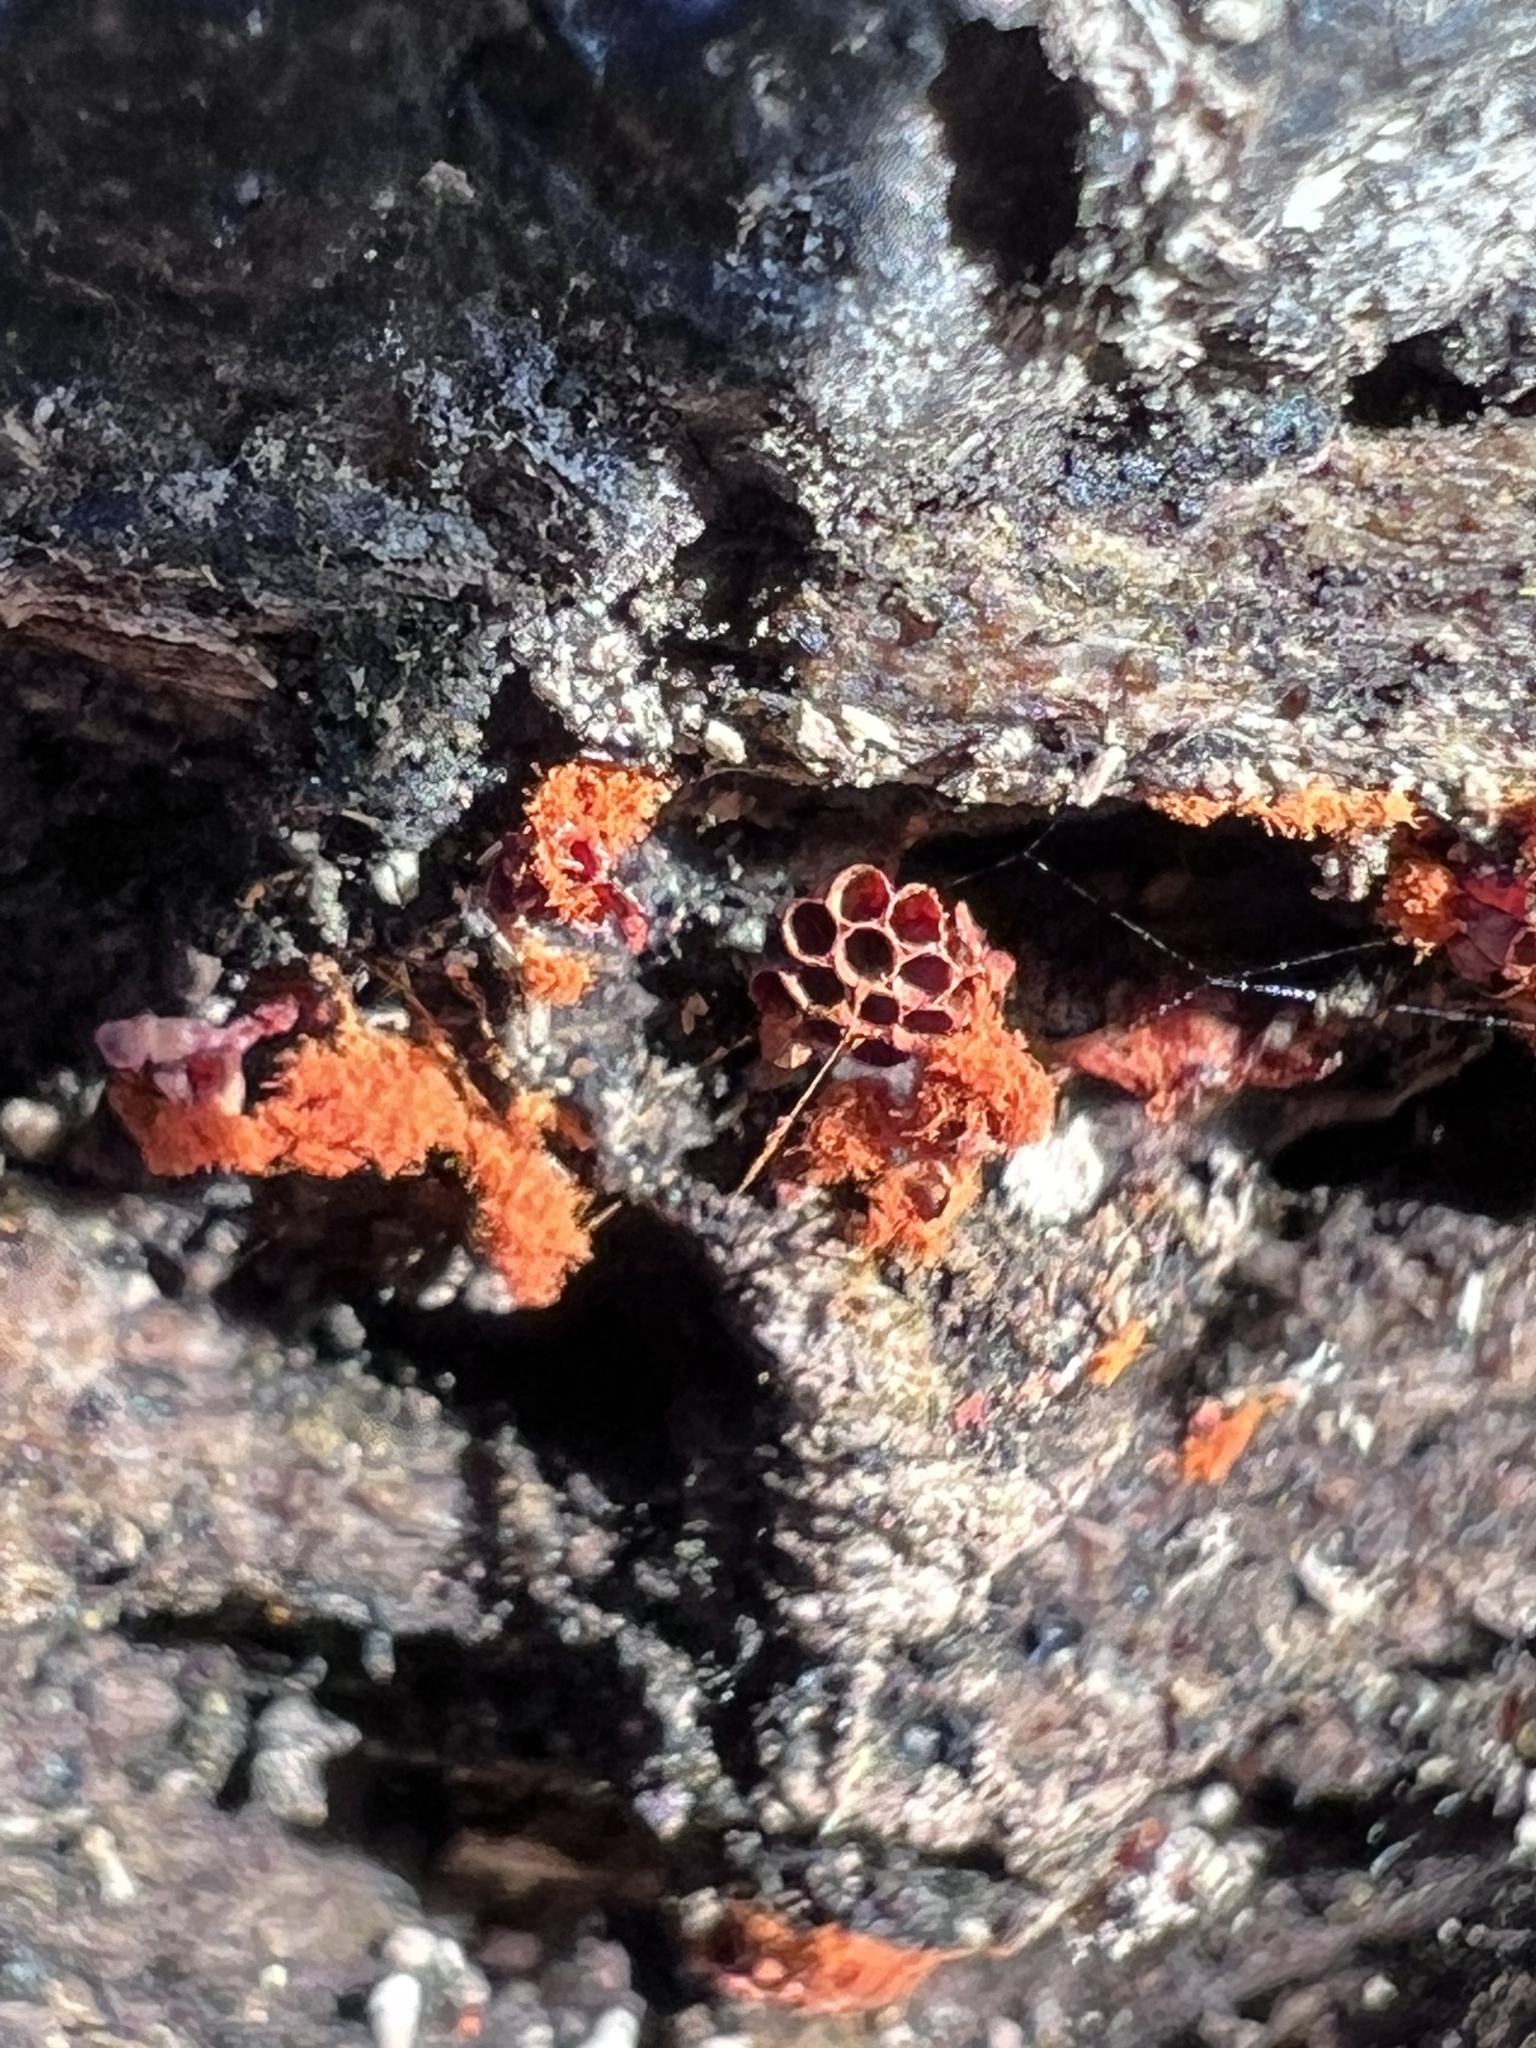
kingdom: Protozoa
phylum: Mycetozoa
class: Myxomycetes
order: Trichiales
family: Trichiaceae
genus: Metatrichia
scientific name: Metatrichia vesparia
